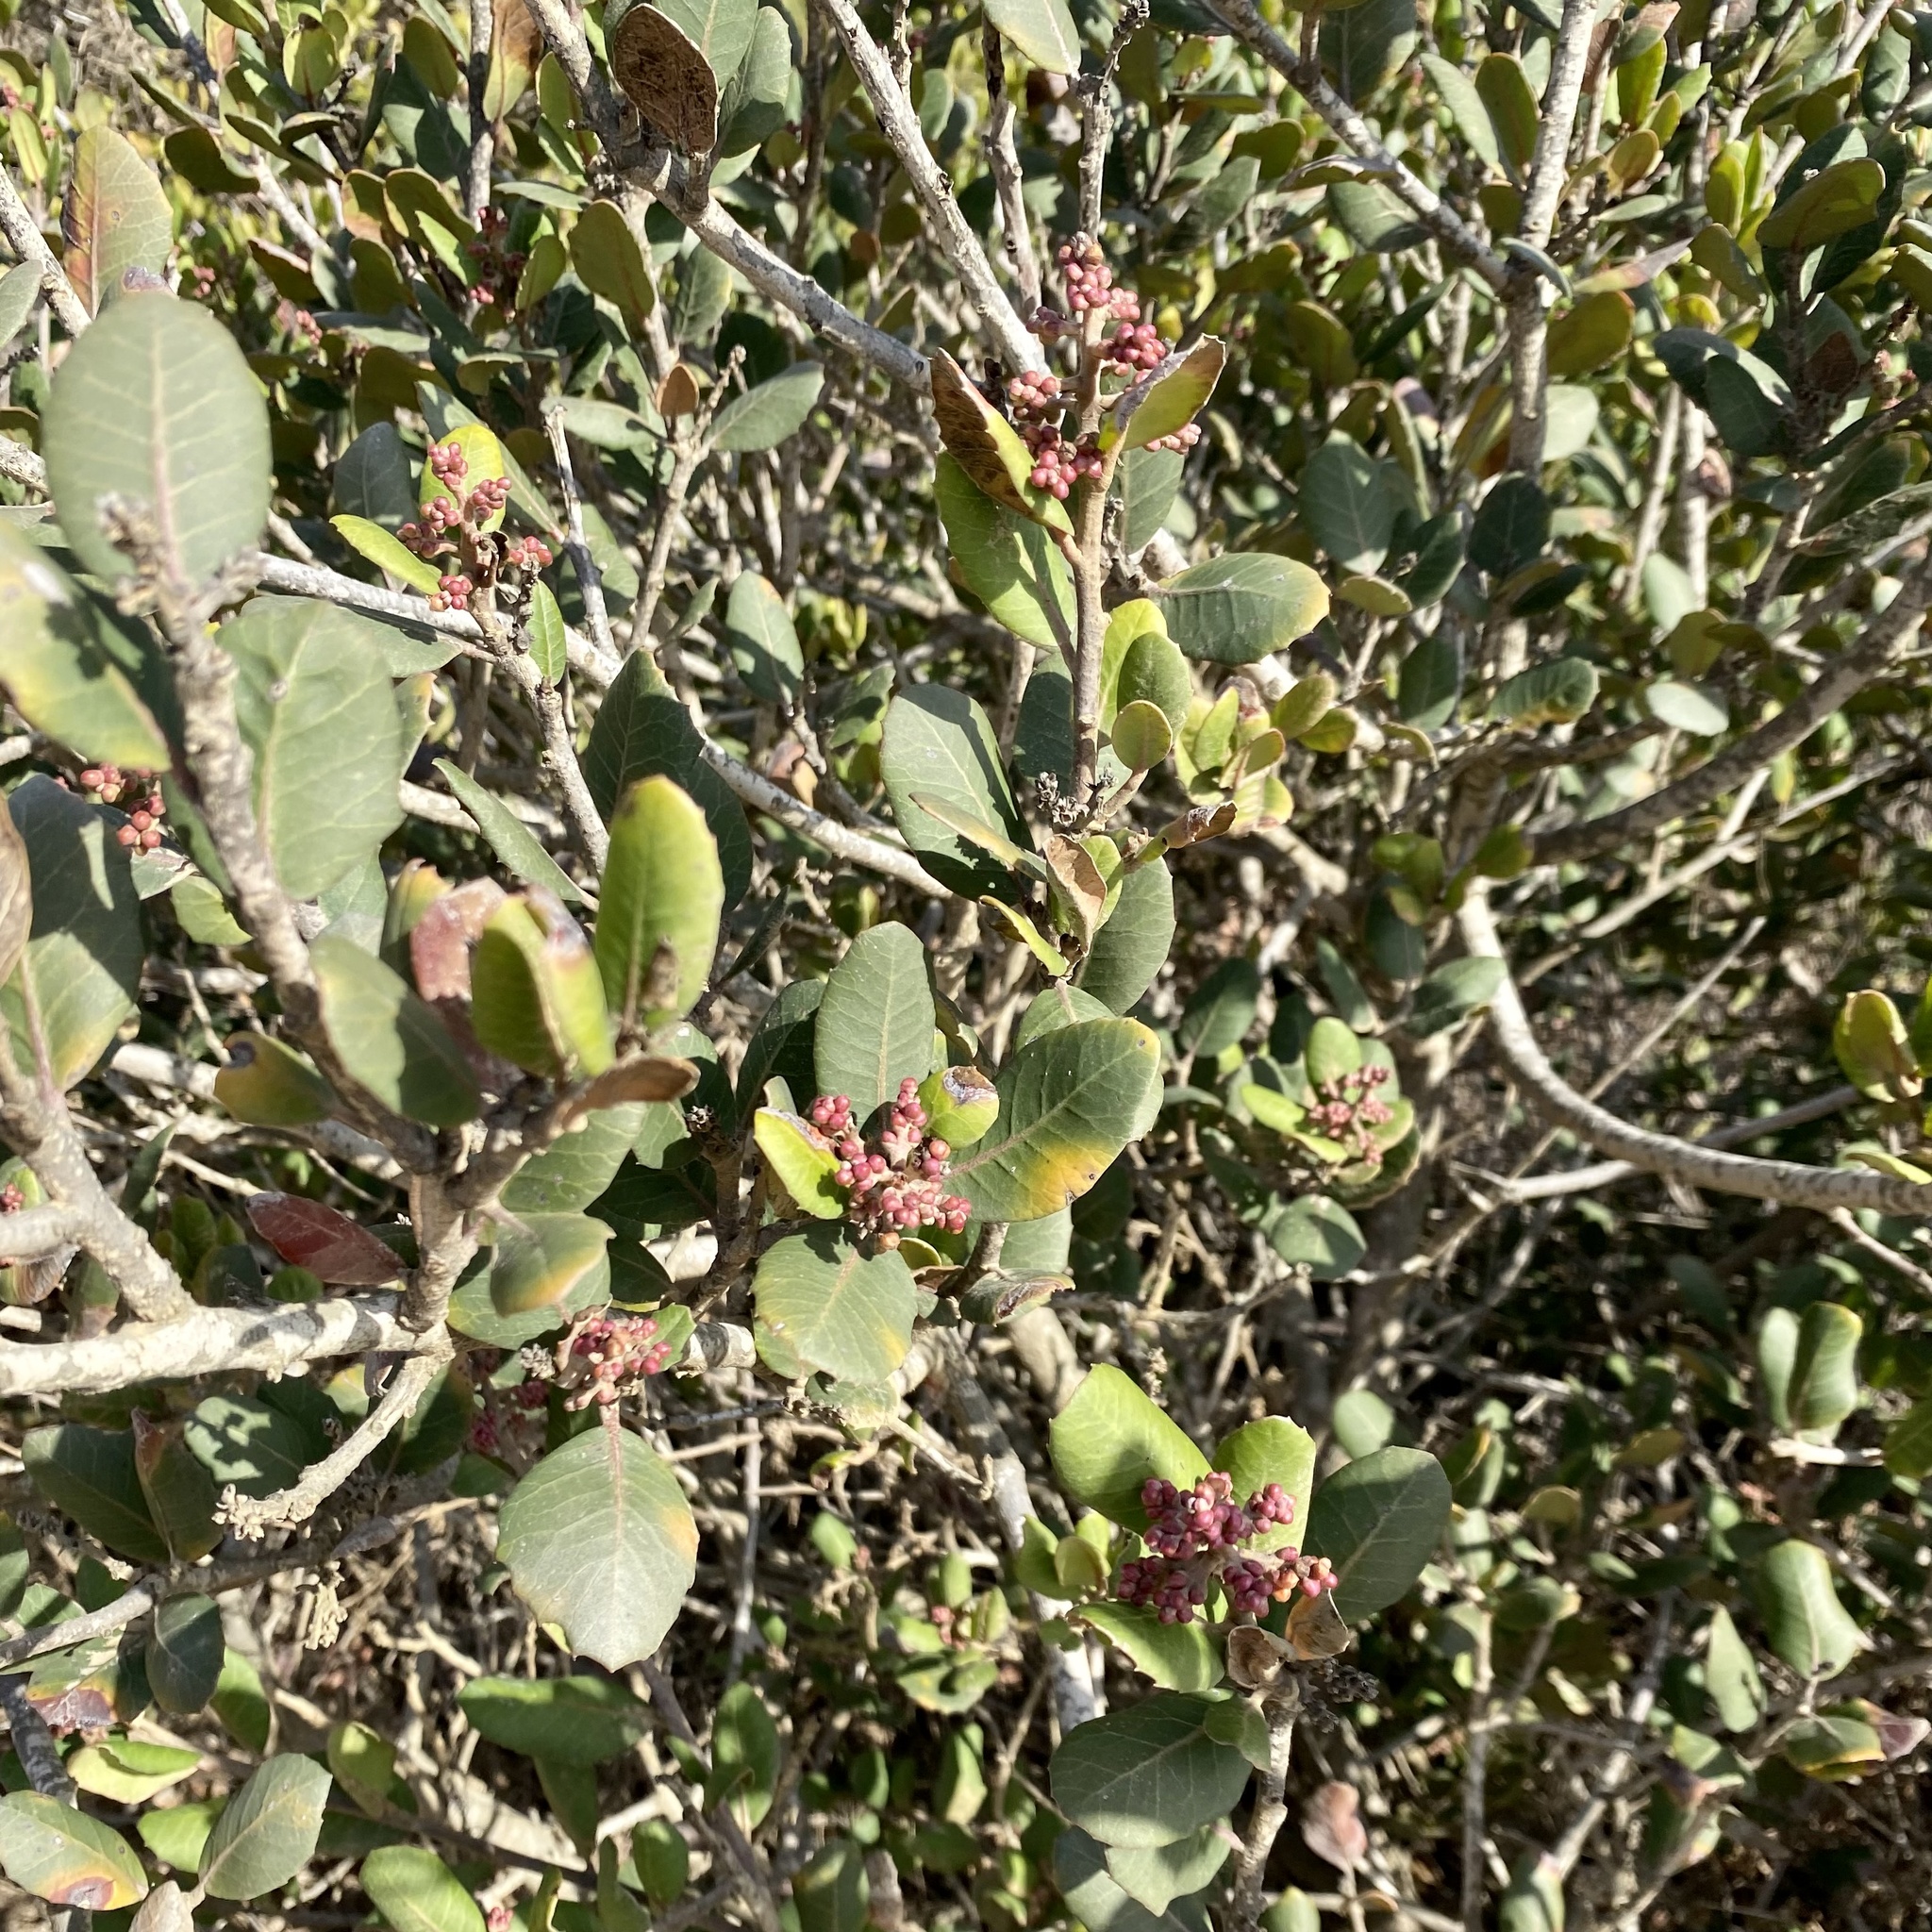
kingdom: Plantae
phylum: Tracheophyta
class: Magnoliopsida
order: Sapindales
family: Anacardiaceae
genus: Rhus
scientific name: Rhus integrifolia
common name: Lemonade sumac
